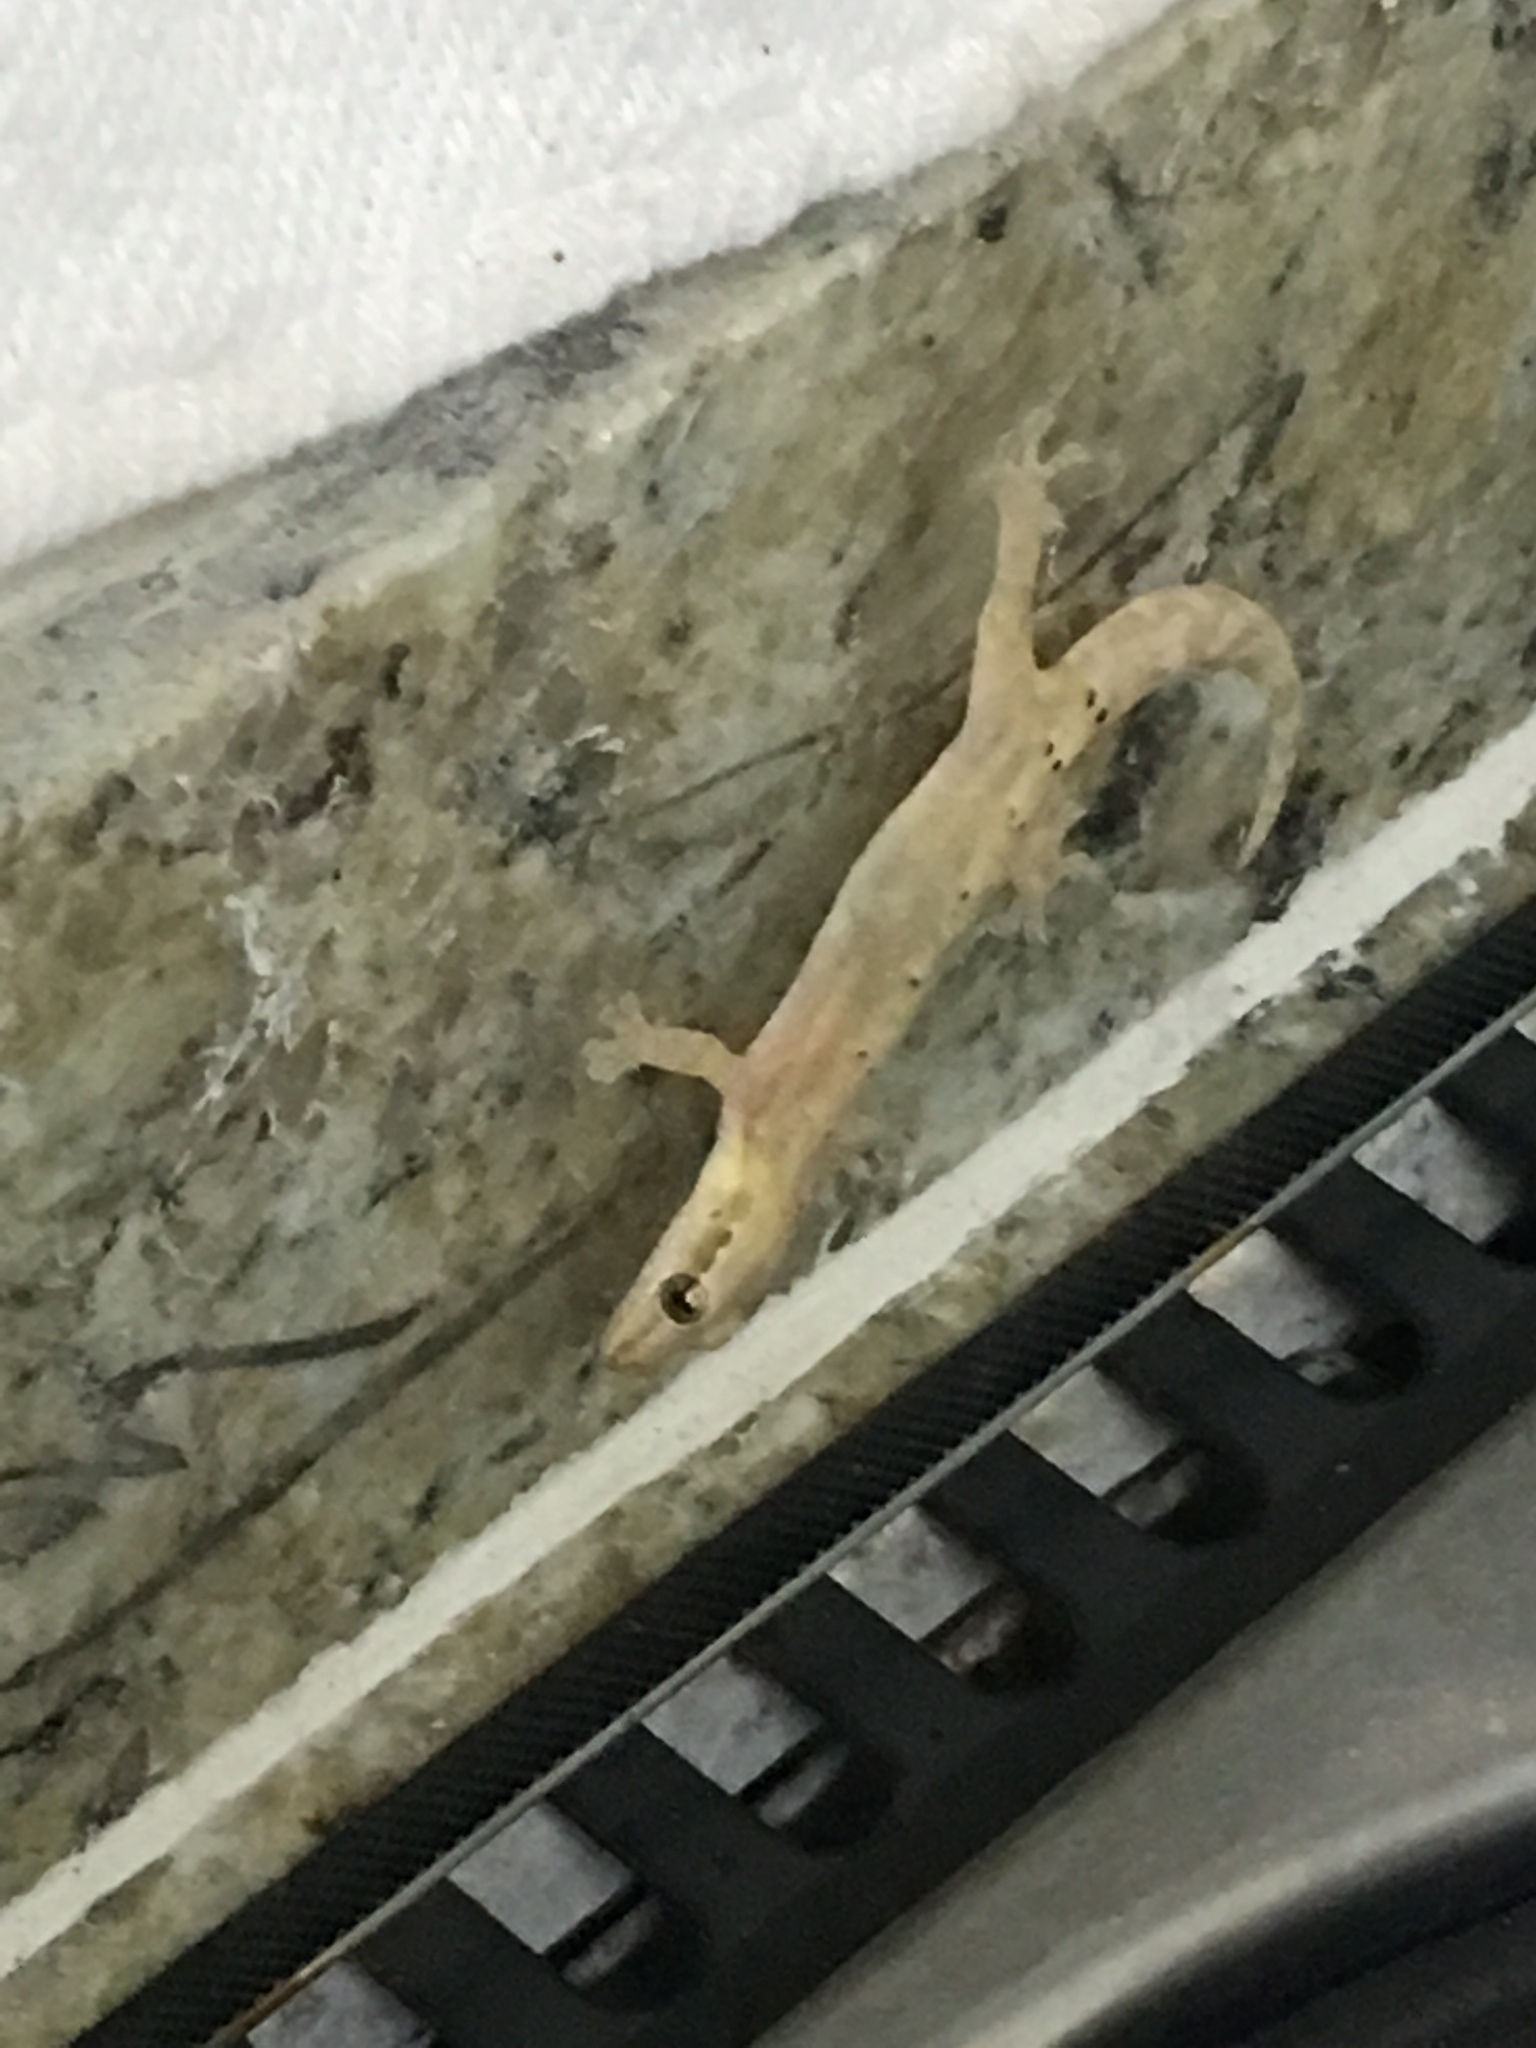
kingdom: Animalia
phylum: Chordata
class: Squamata
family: Gekkonidae
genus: Lepidodactylus
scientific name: Lepidodactylus lugubris
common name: Mourning gecko
